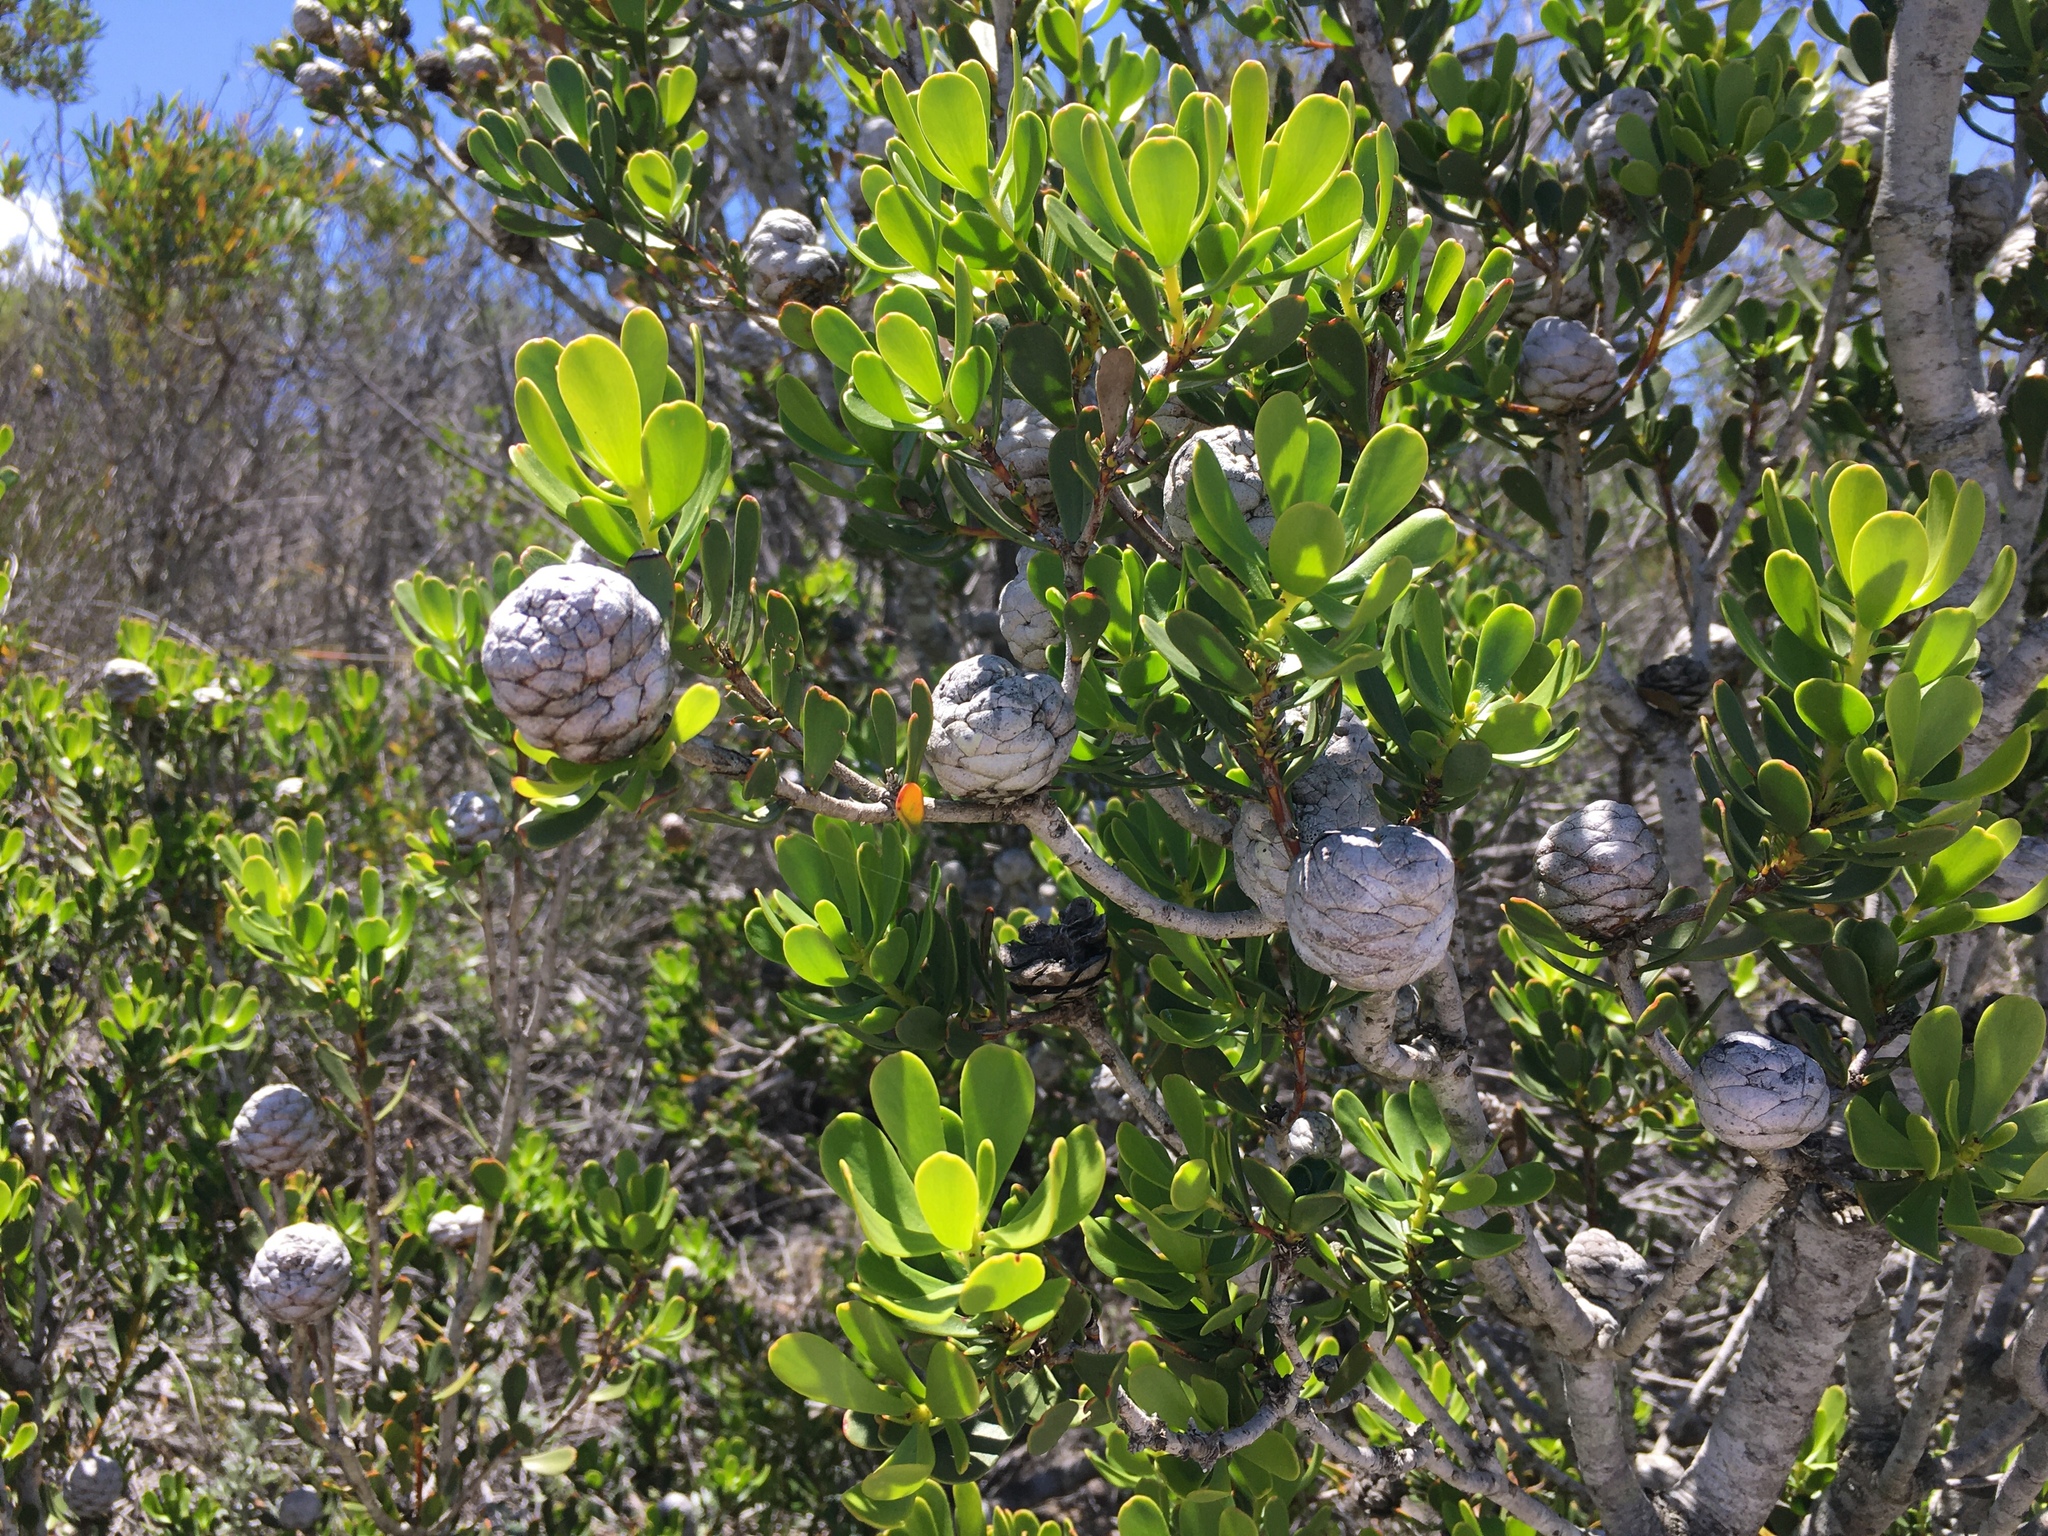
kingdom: Plantae
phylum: Tracheophyta
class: Magnoliopsida
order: Proteales
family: Proteaceae
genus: Leucadendron
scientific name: Leucadendron muirii
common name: Silver-ball conebush
